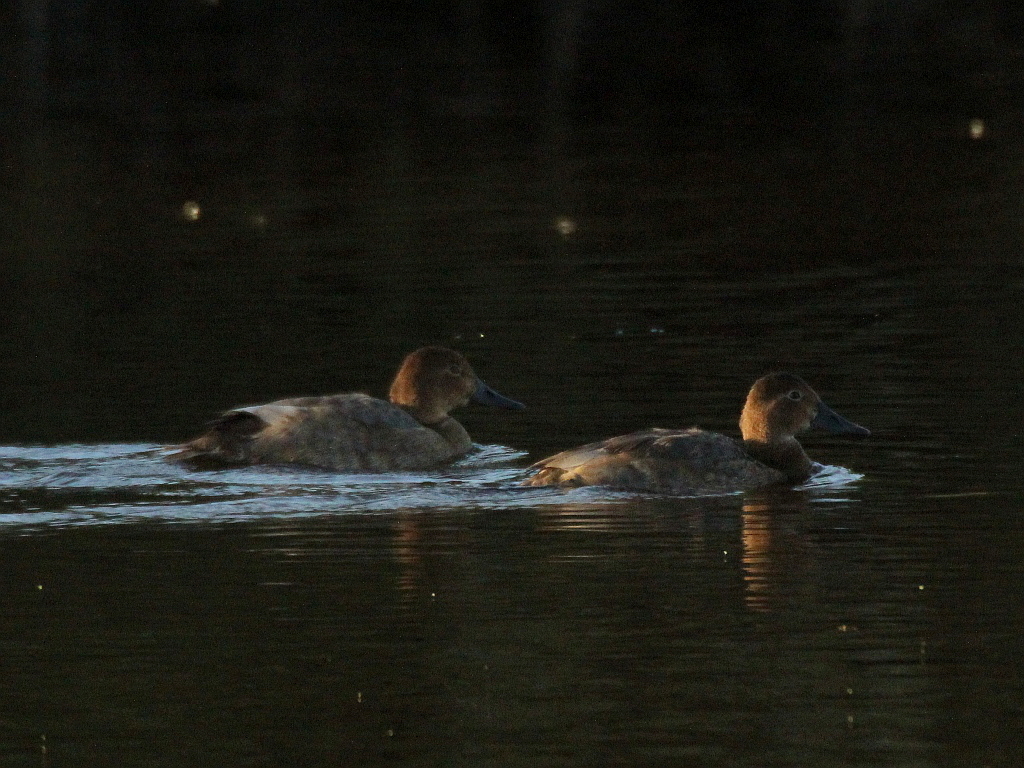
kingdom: Animalia
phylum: Chordata
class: Aves
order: Anseriformes
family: Anatidae
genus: Aythya
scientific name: Aythya ferina
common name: Common pochard
